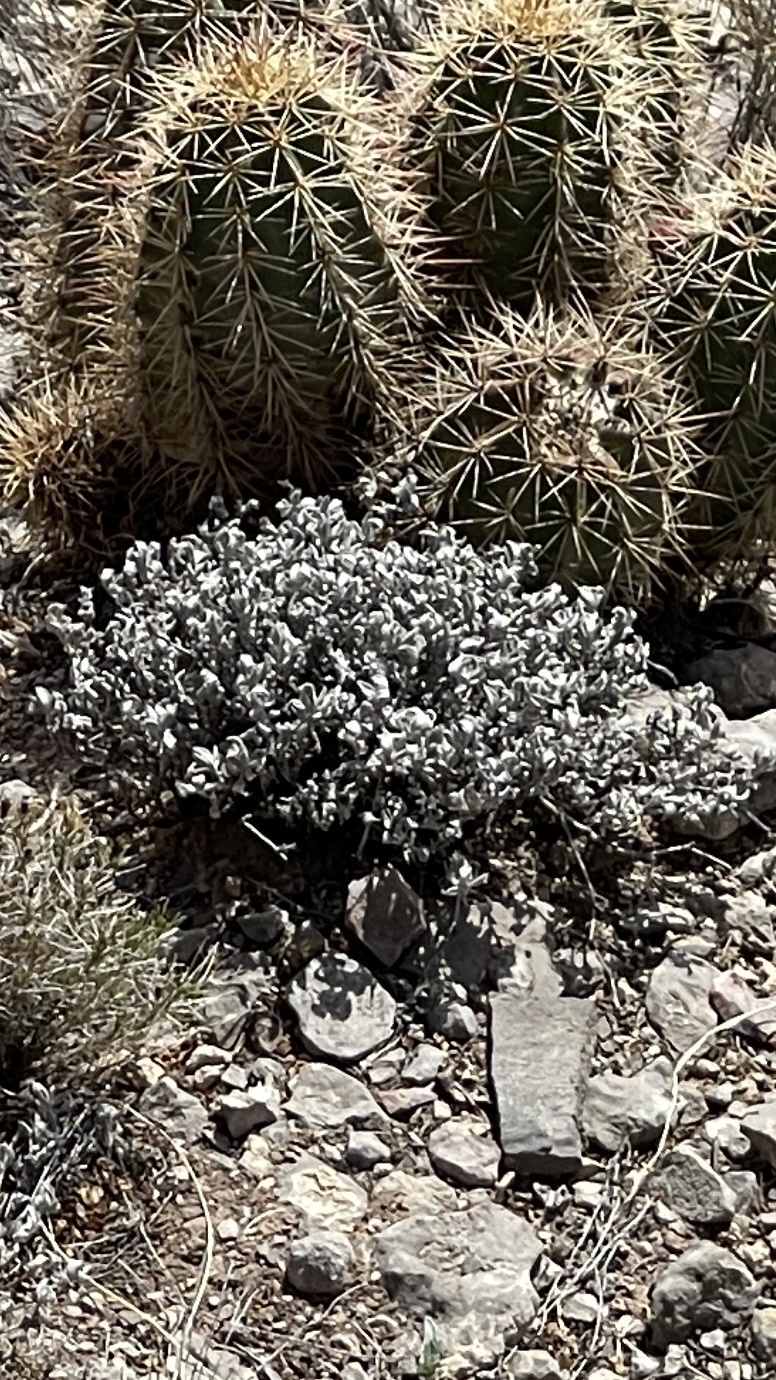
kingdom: Plantae
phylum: Tracheophyta
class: Magnoliopsida
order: Boraginales
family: Ehretiaceae
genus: Tiquilia
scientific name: Tiquilia canescens
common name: Hairy tiquilia
